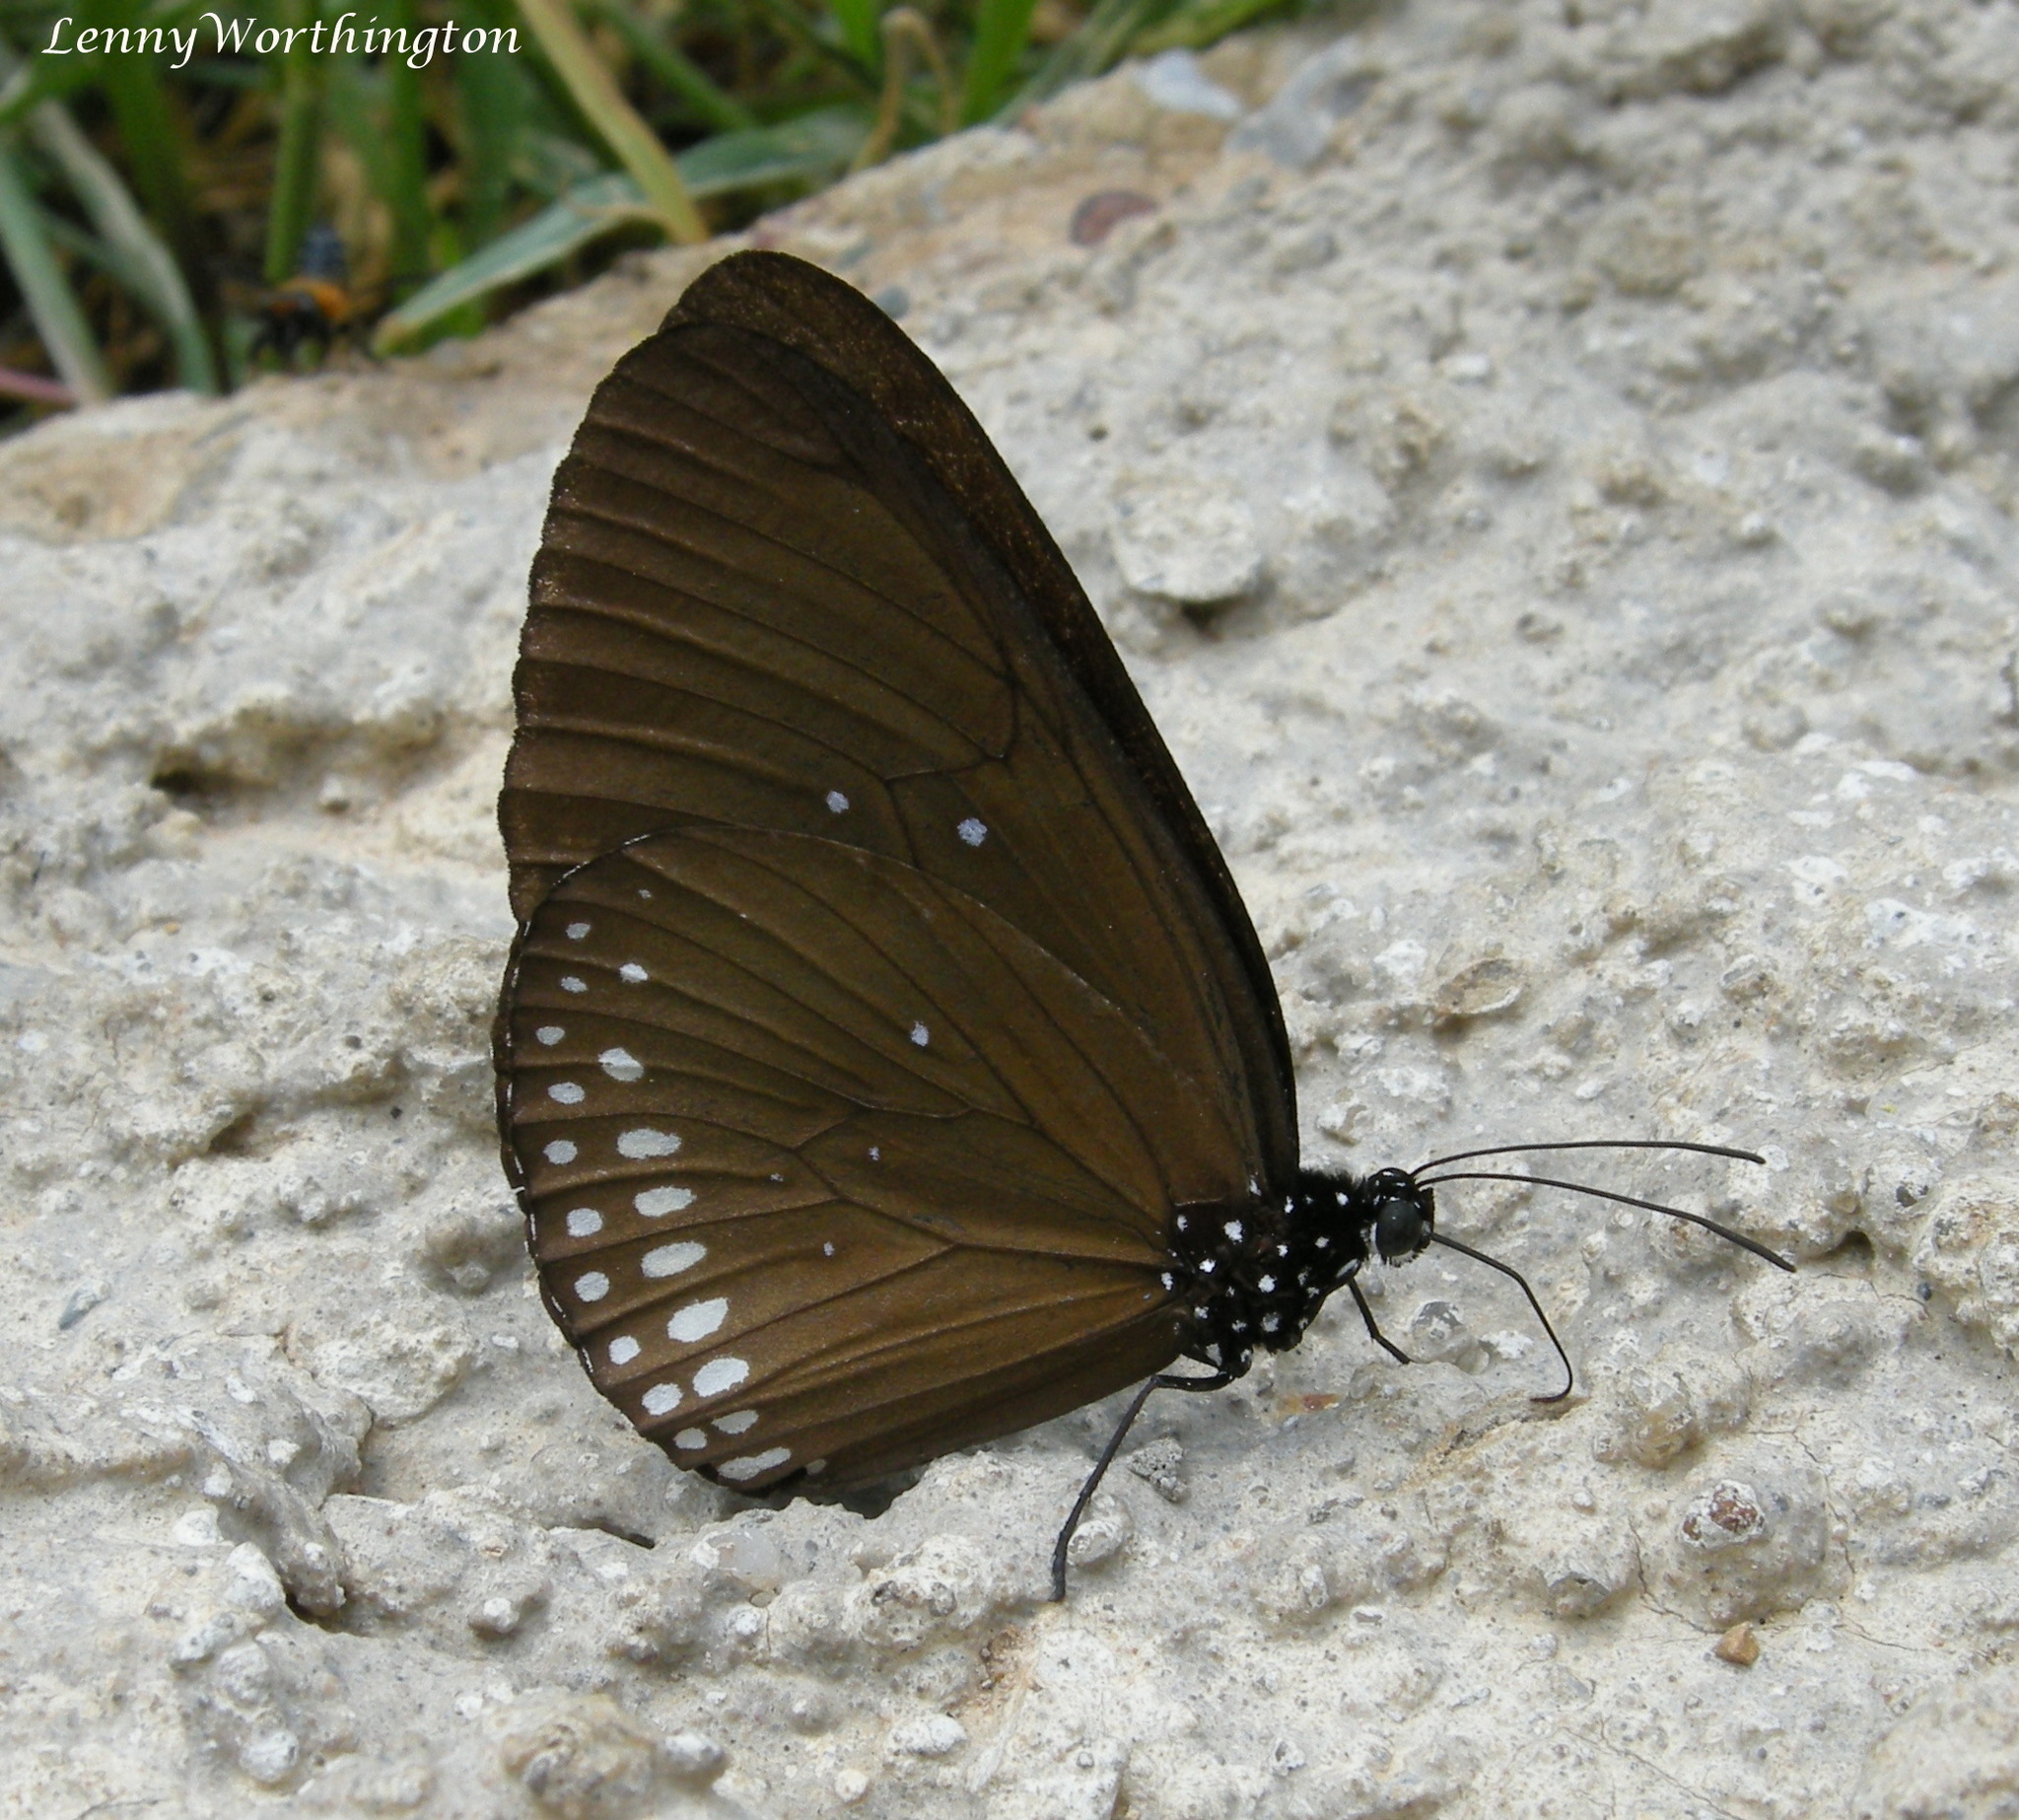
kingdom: Animalia
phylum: Arthropoda
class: Insecta
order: Lepidoptera
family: Nymphalidae
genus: Euploea
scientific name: Euploea modesta
